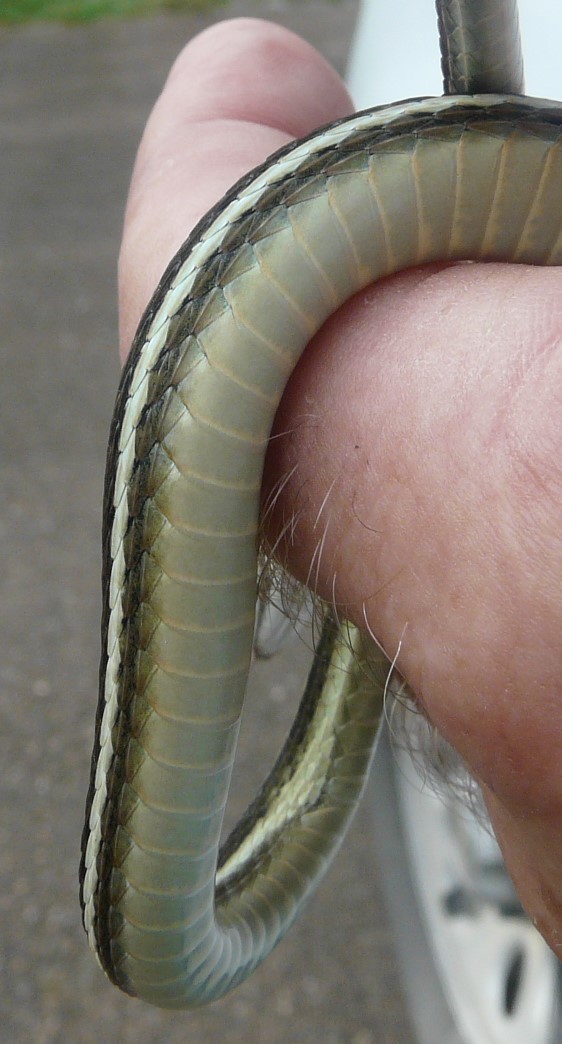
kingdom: Animalia
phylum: Chordata
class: Squamata
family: Colubridae
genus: Thamnophis
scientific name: Thamnophis proximus
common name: Western ribbon snake
